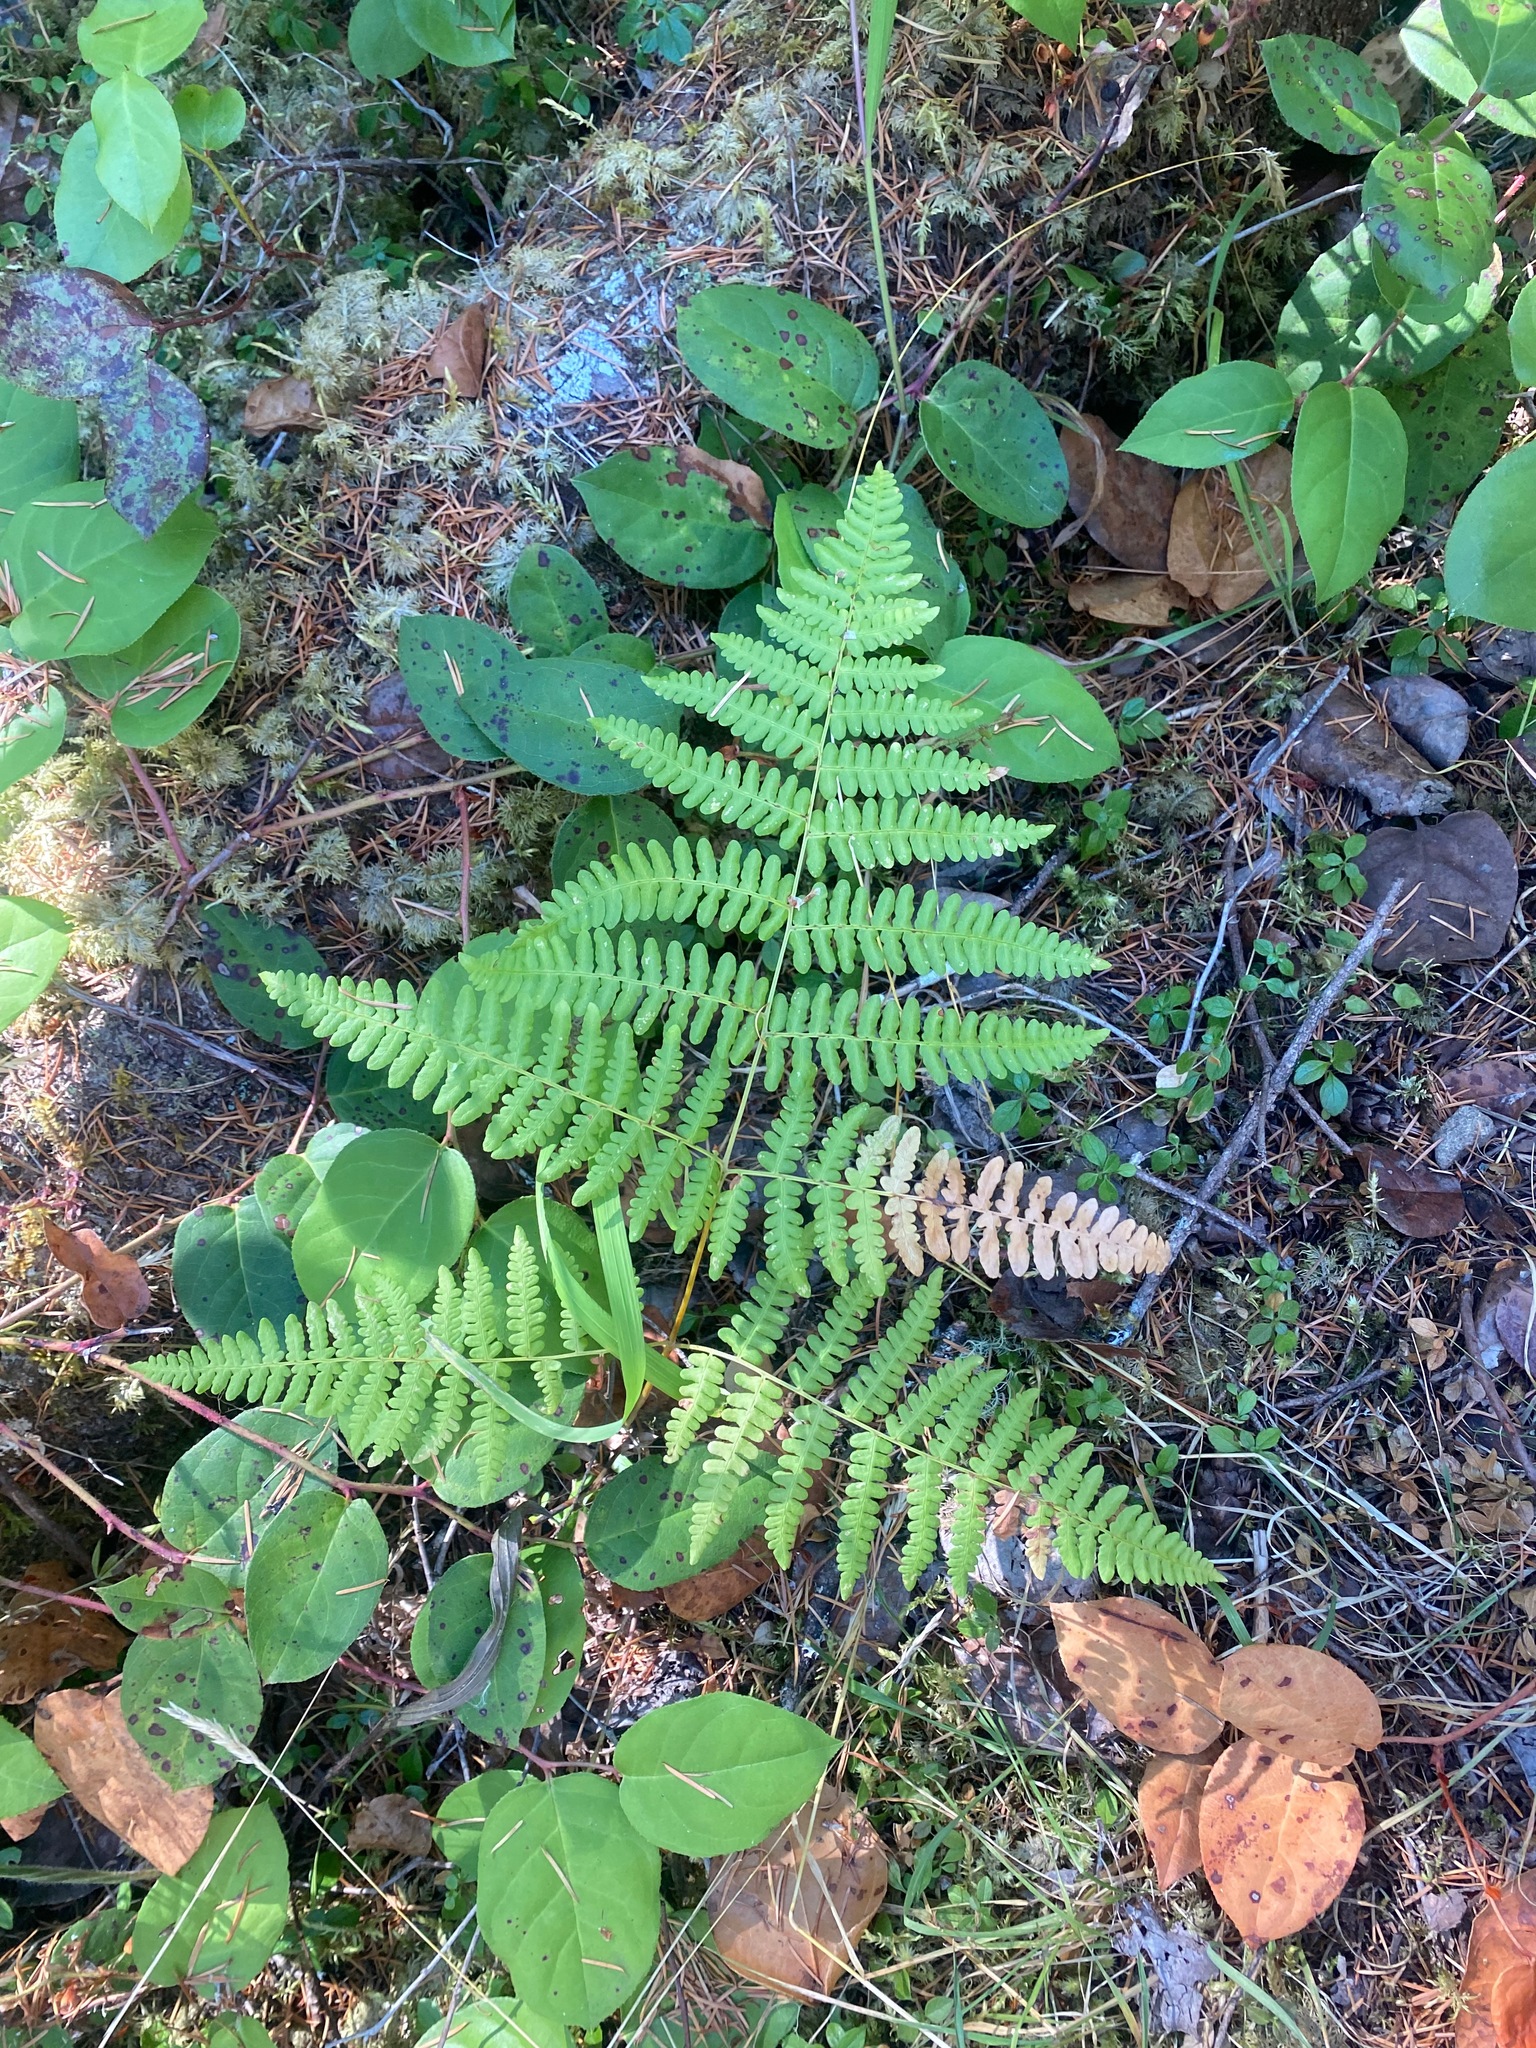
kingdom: Plantae
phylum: Tracheophyta
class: Polypodiopsida
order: Polypodiales
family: Dennstaedtiaceae
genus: Pteridium
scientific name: Pteridium aquilinum
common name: Bracken
